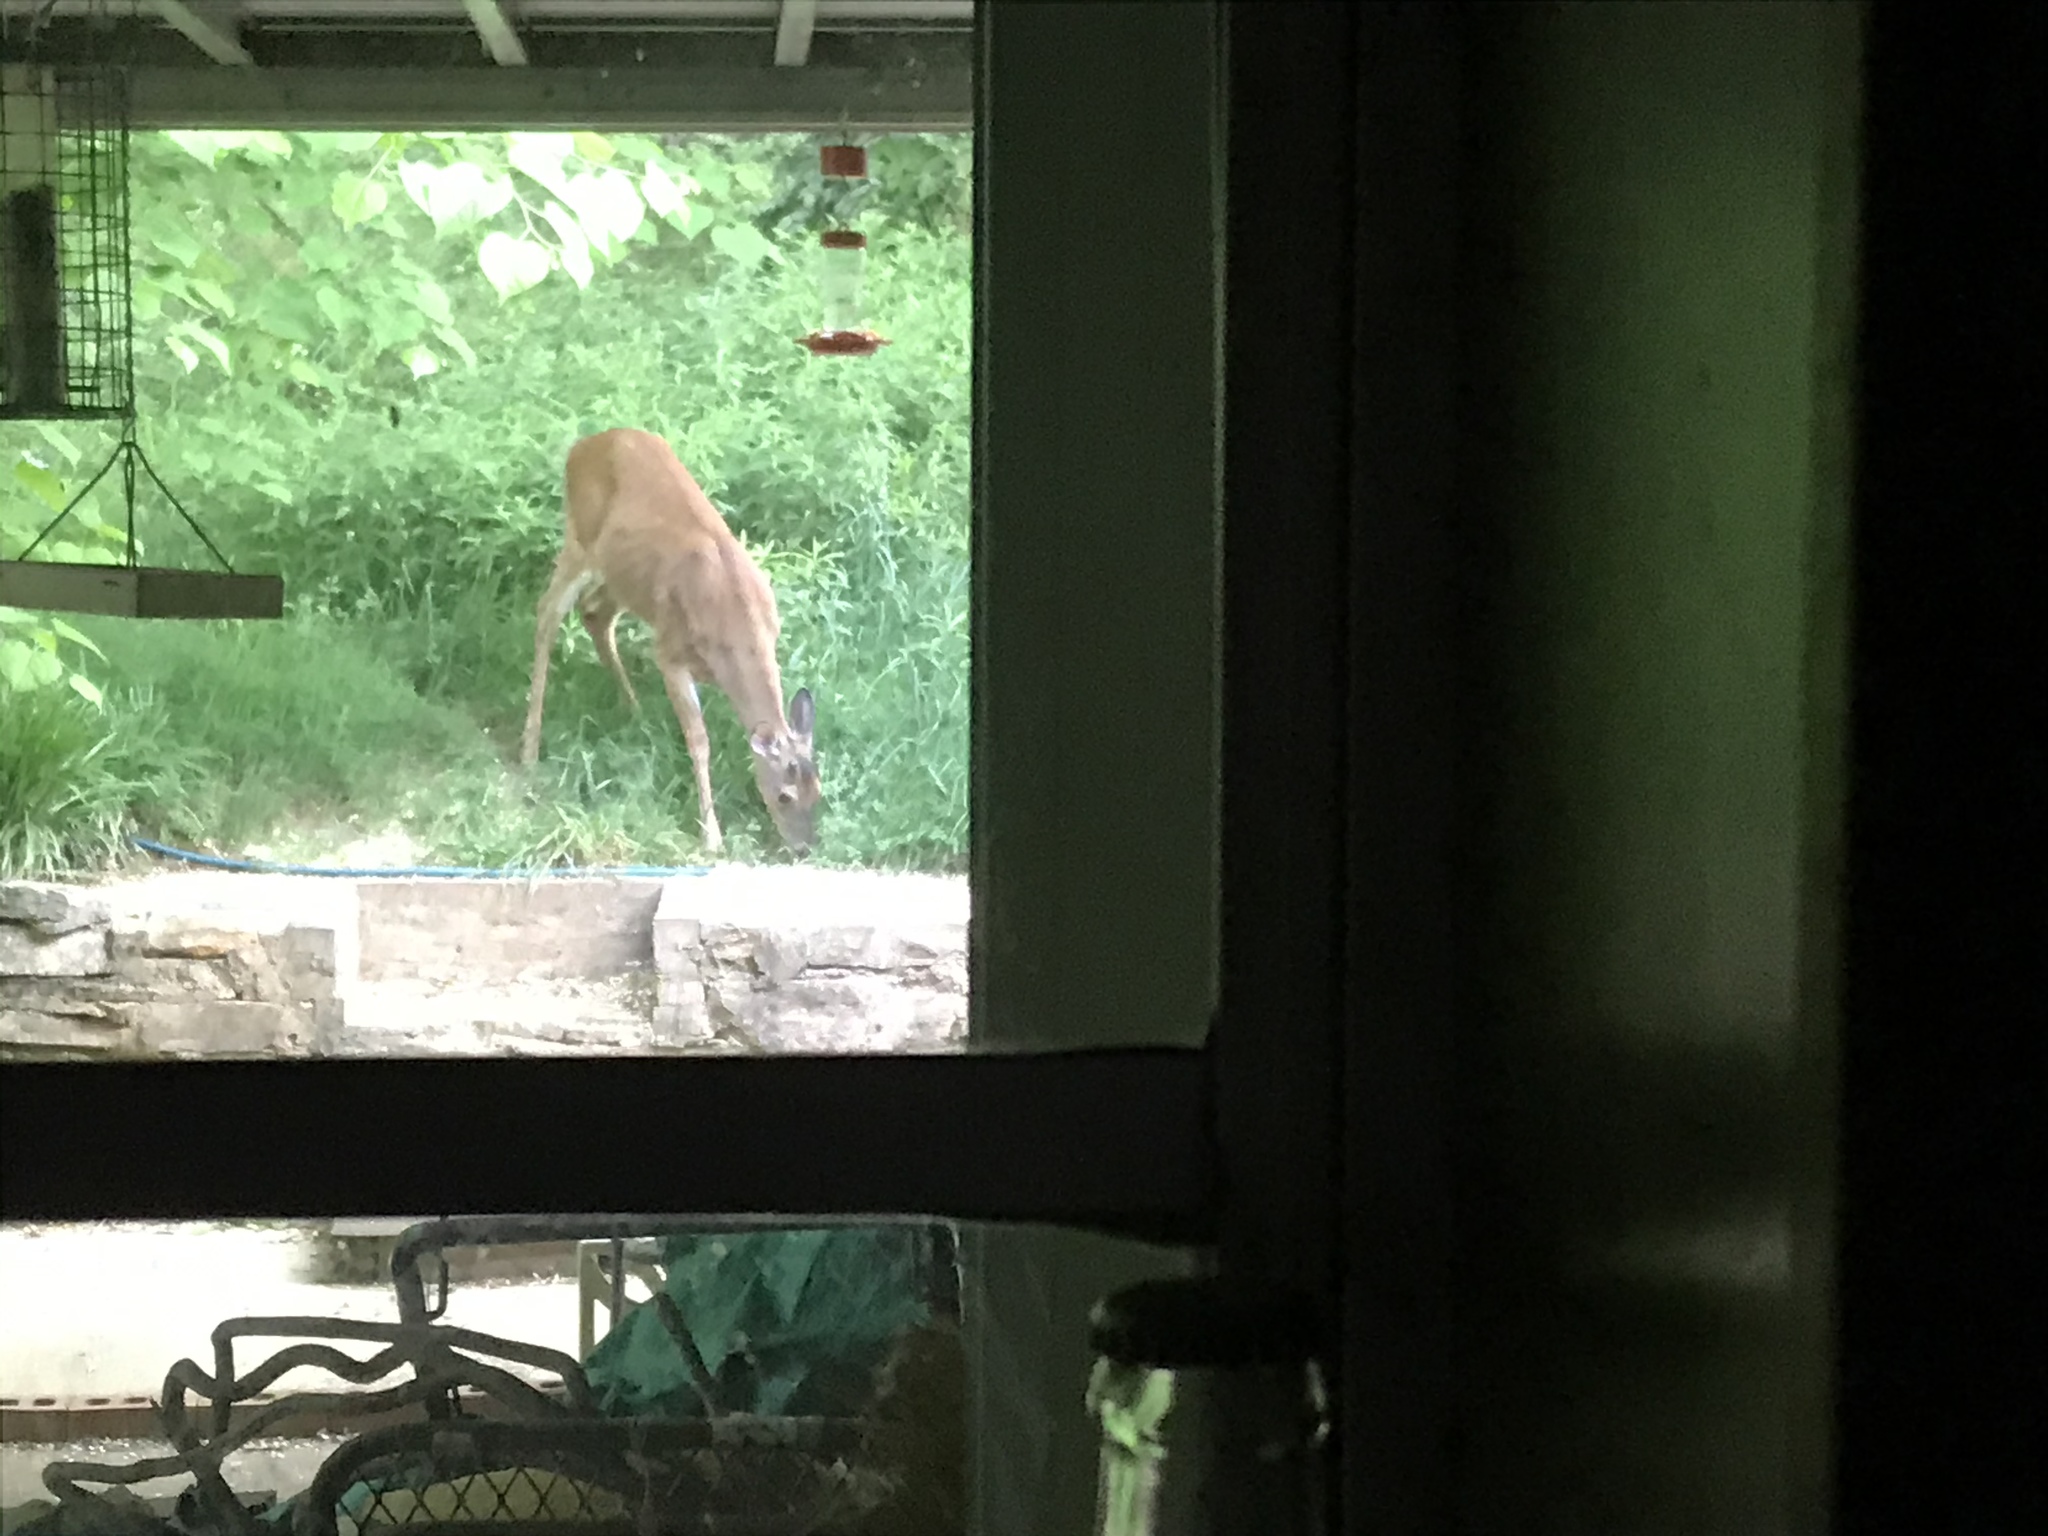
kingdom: Animalia
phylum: Chordata
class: Mammalia
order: Artiodactyla
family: Cervidae
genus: Odocoileus
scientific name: Odocoileus virginianus
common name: White-tailed deer
